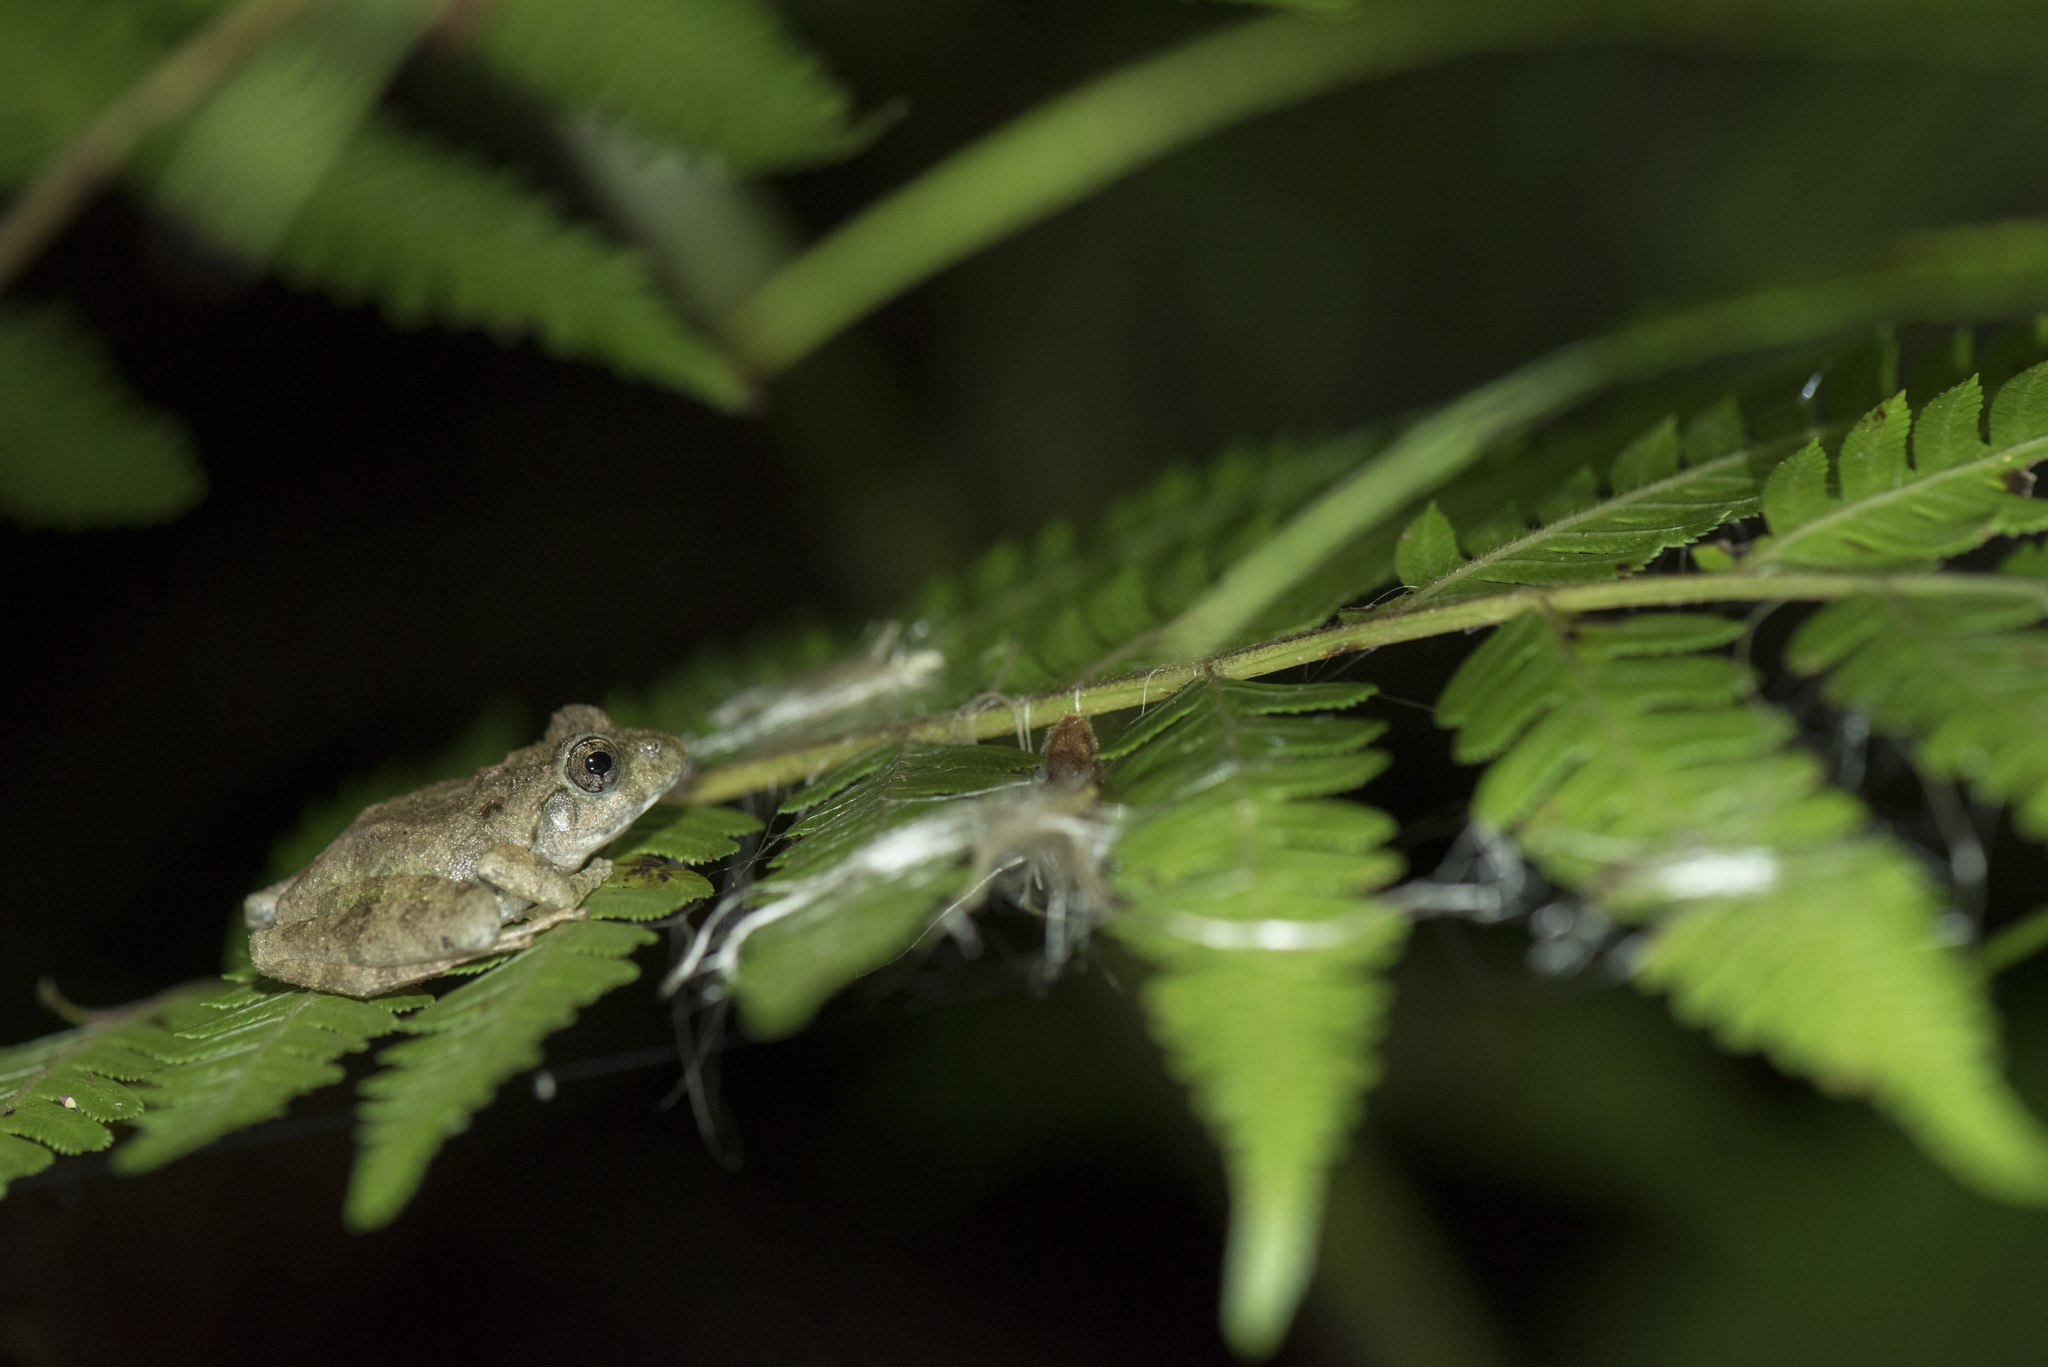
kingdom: Animalia
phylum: Chordata
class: Amphibia
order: Anura
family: Rhacophoridae
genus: Buergeria
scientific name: Buergeria choui
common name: Yaeyama kajika frog
